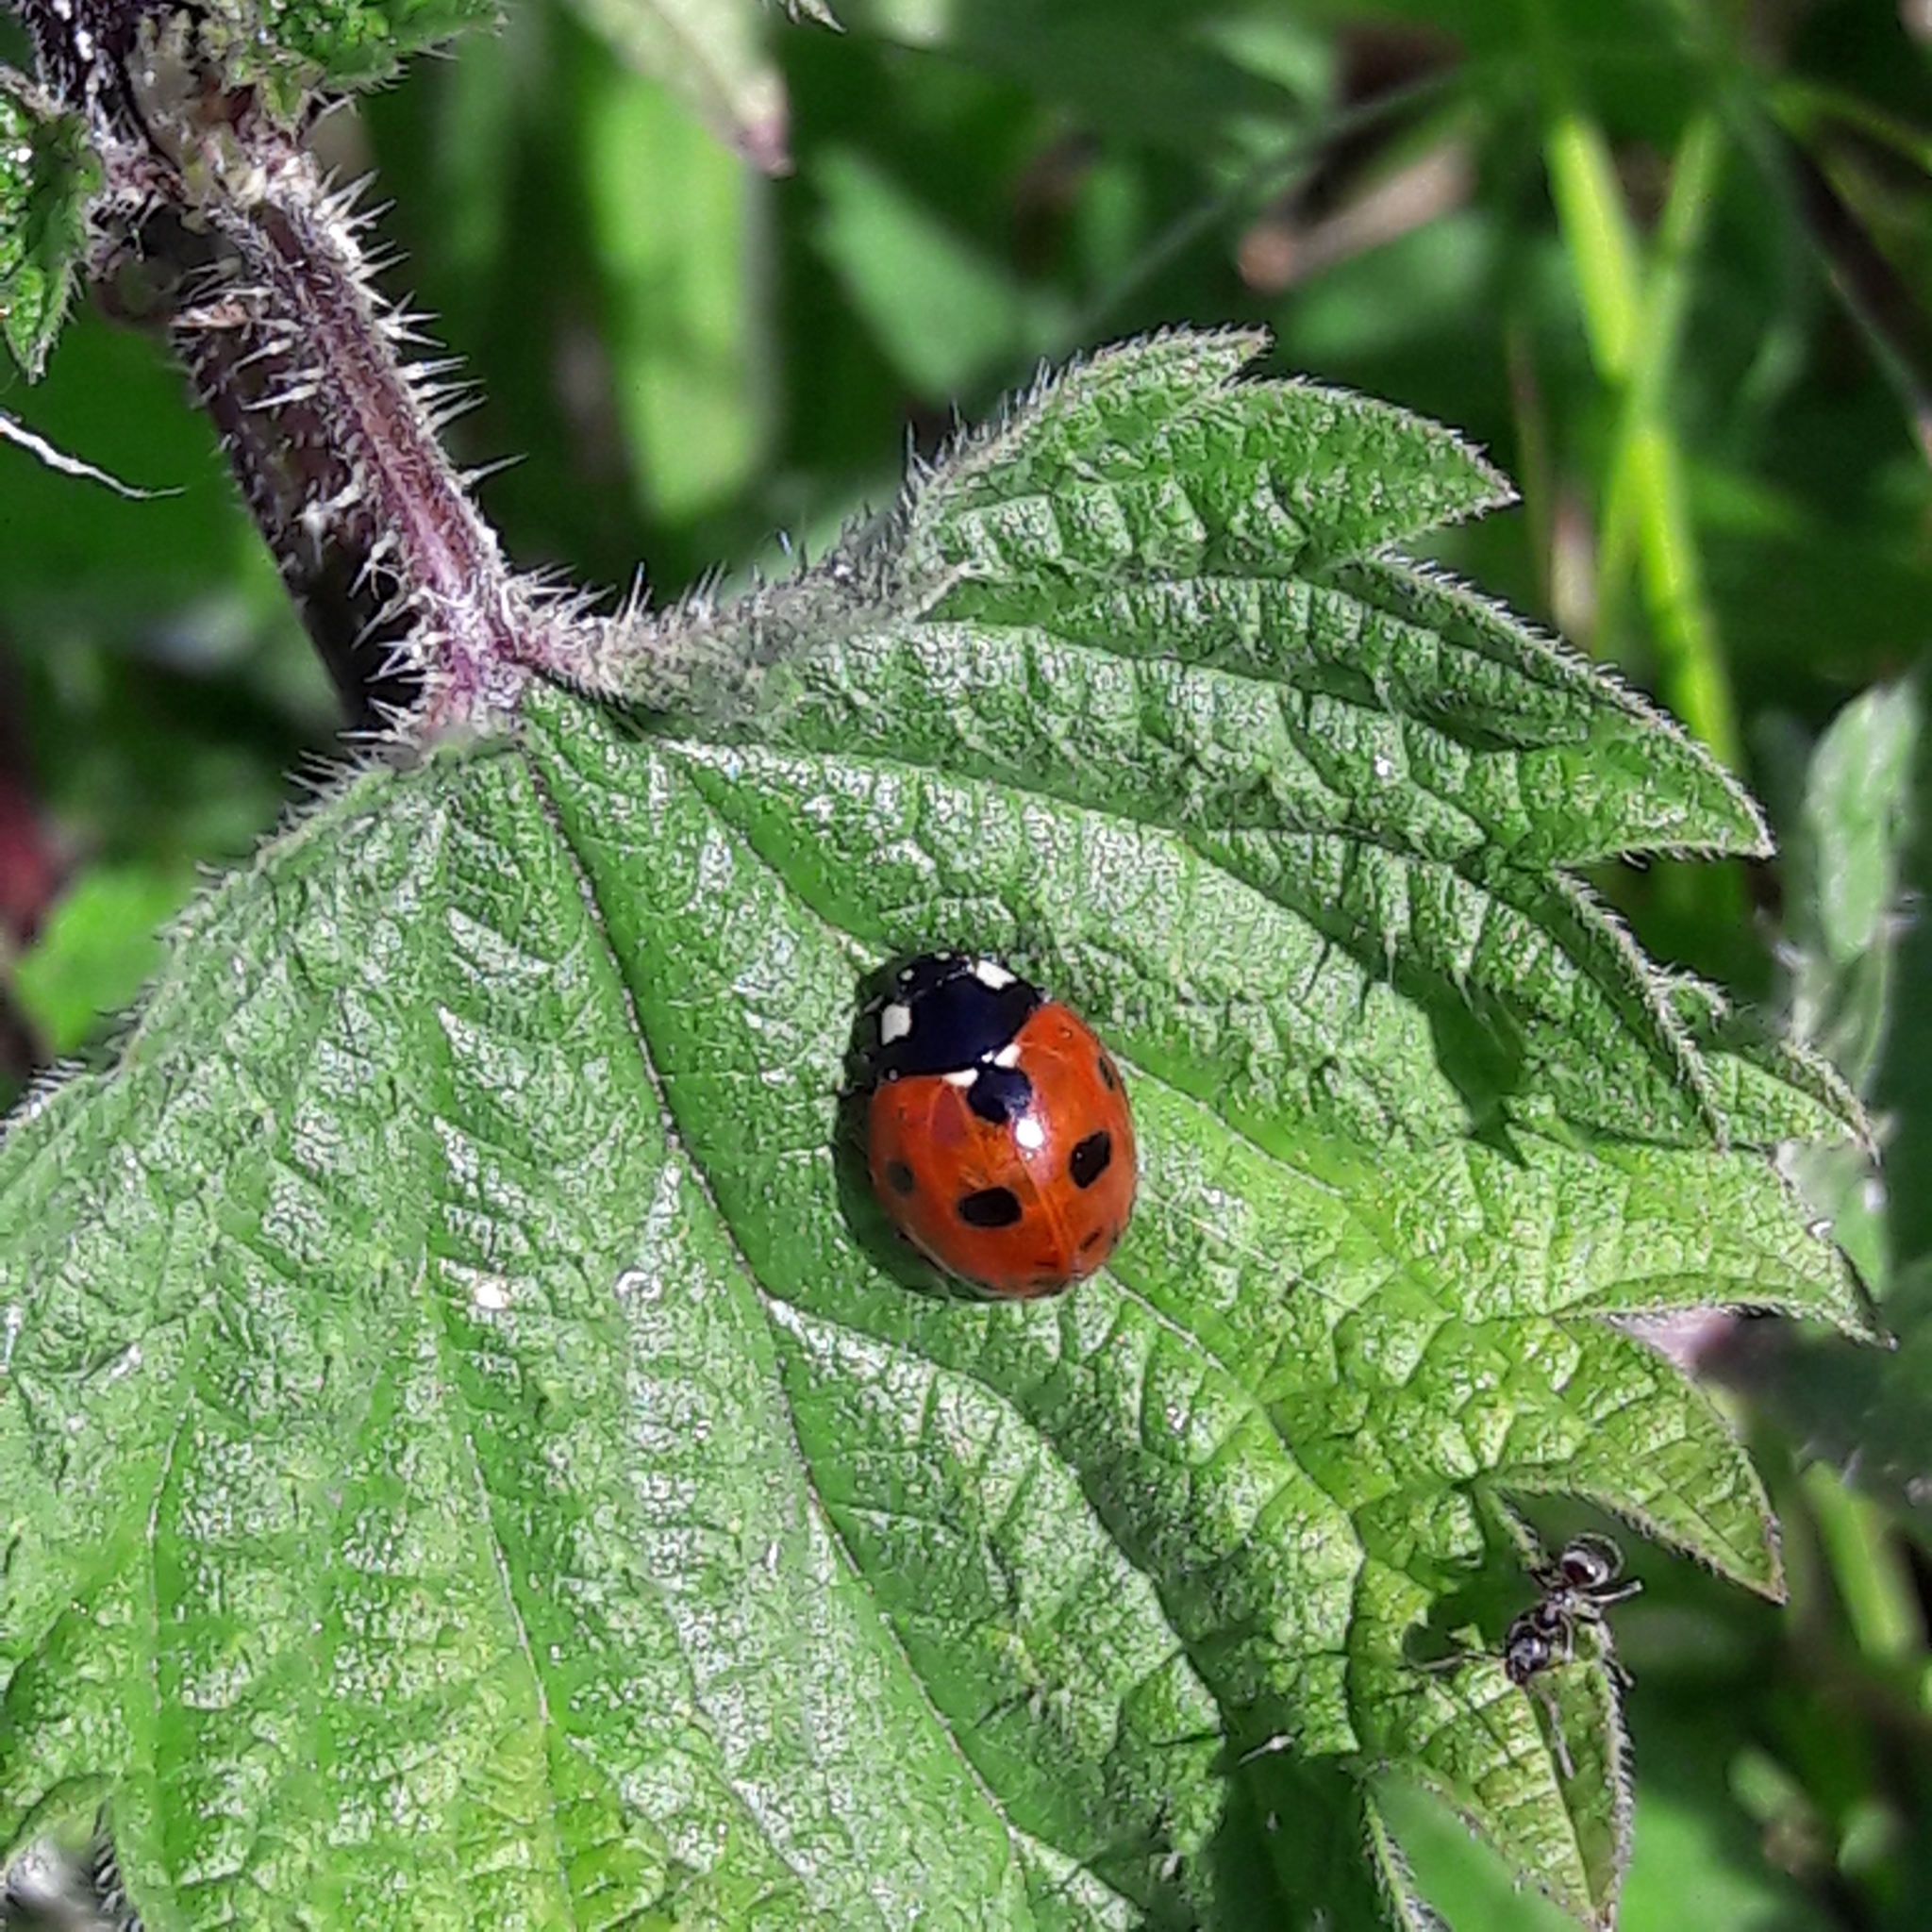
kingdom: Animalia
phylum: Arthropoda
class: Insecta
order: Coleoptera
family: Coccinellidae
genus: Coccinella
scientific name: Coccinella septempunctata
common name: Sevenspotted lady beetle
